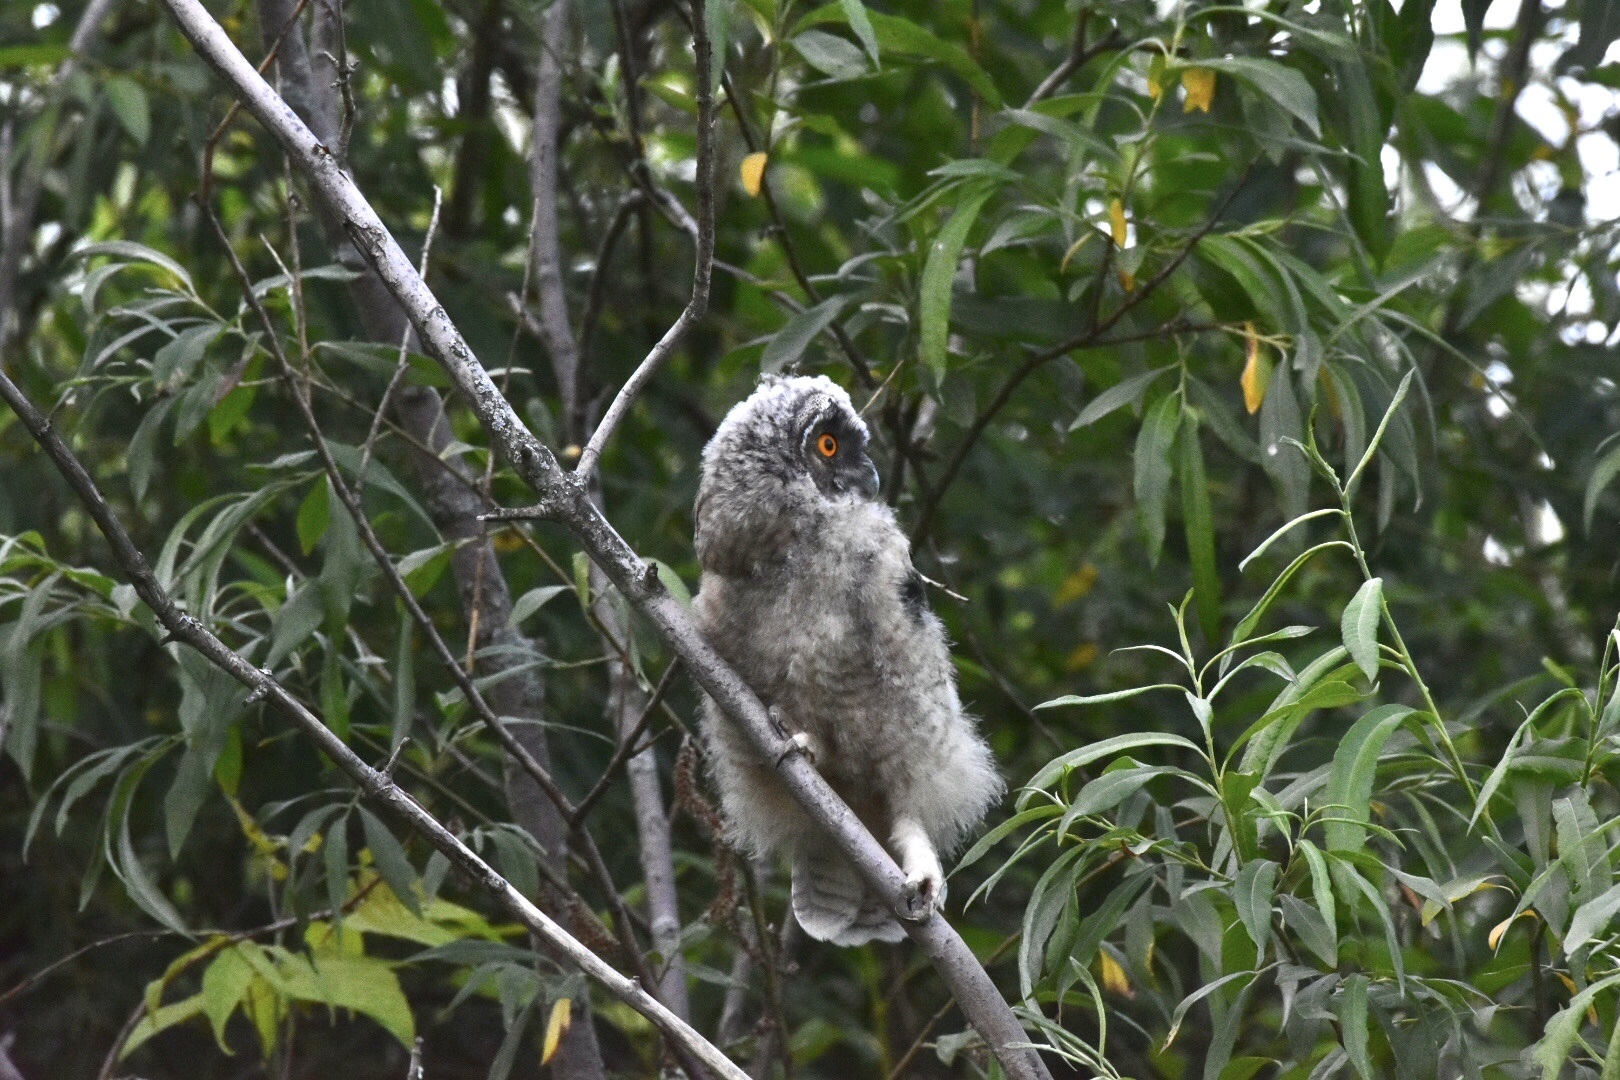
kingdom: Animalia
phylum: Chordata
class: Aves
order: Strigiformes
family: Strigidae
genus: Asio
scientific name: Asio otus
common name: Long-eared owl
